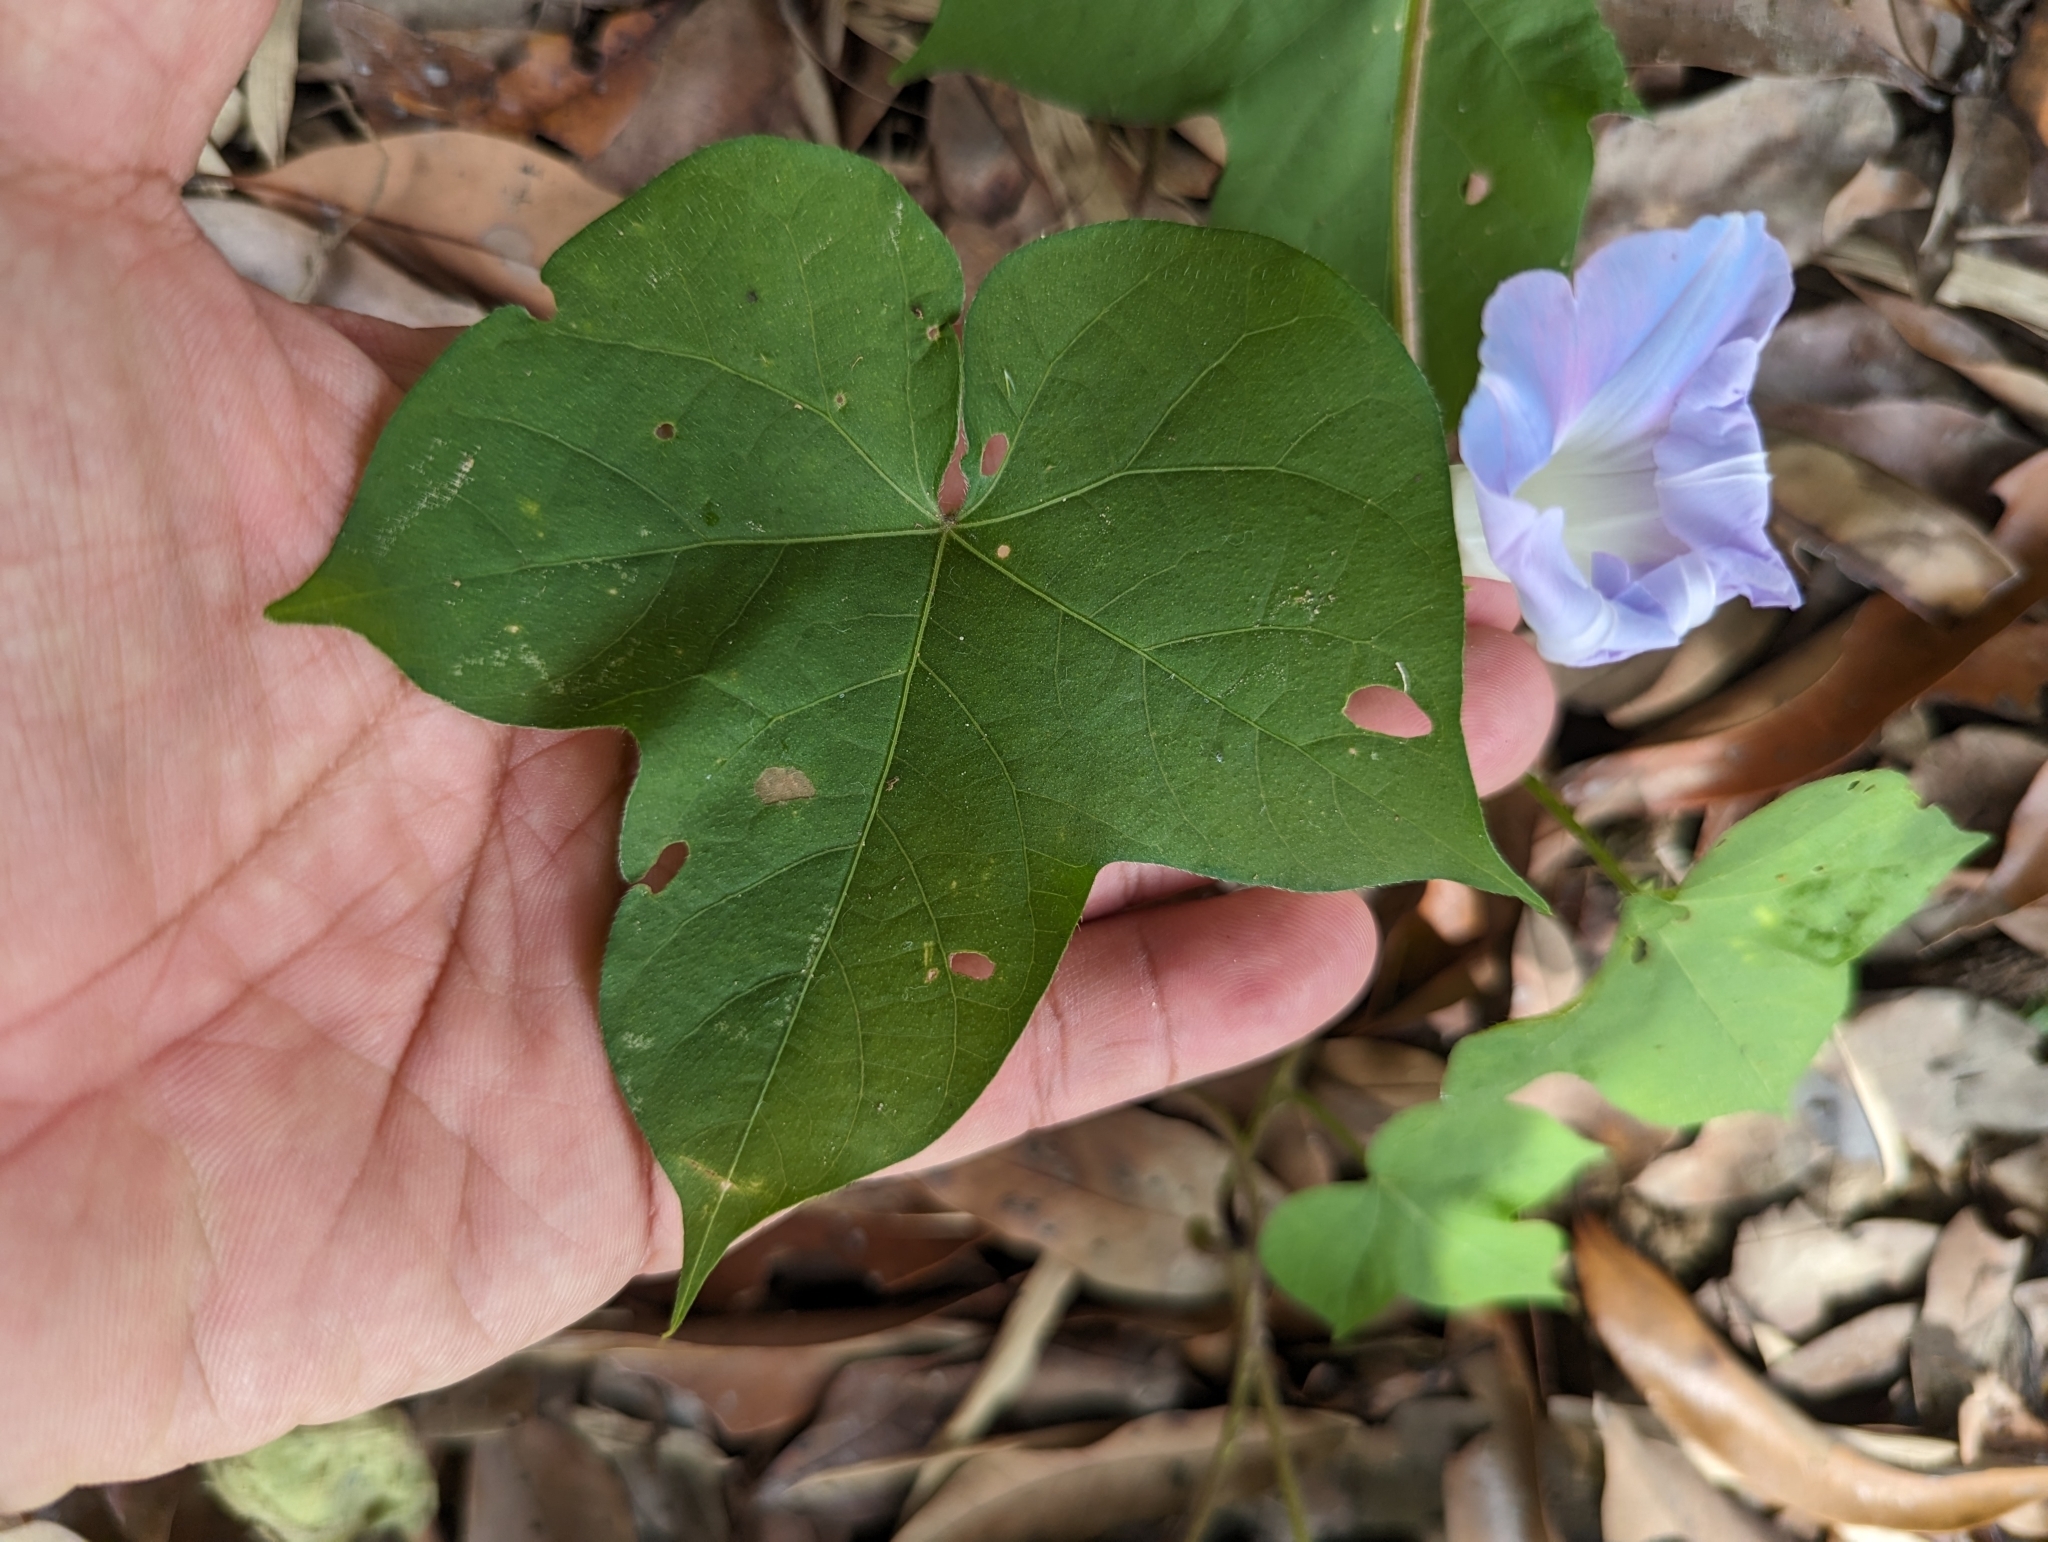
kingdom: Plantae
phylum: Tracheophyta
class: Magnoliopsida
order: Solanales
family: Convolvulaceae
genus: Ipomoea
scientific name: Ipomoea nil
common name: Japanese morning-glory
